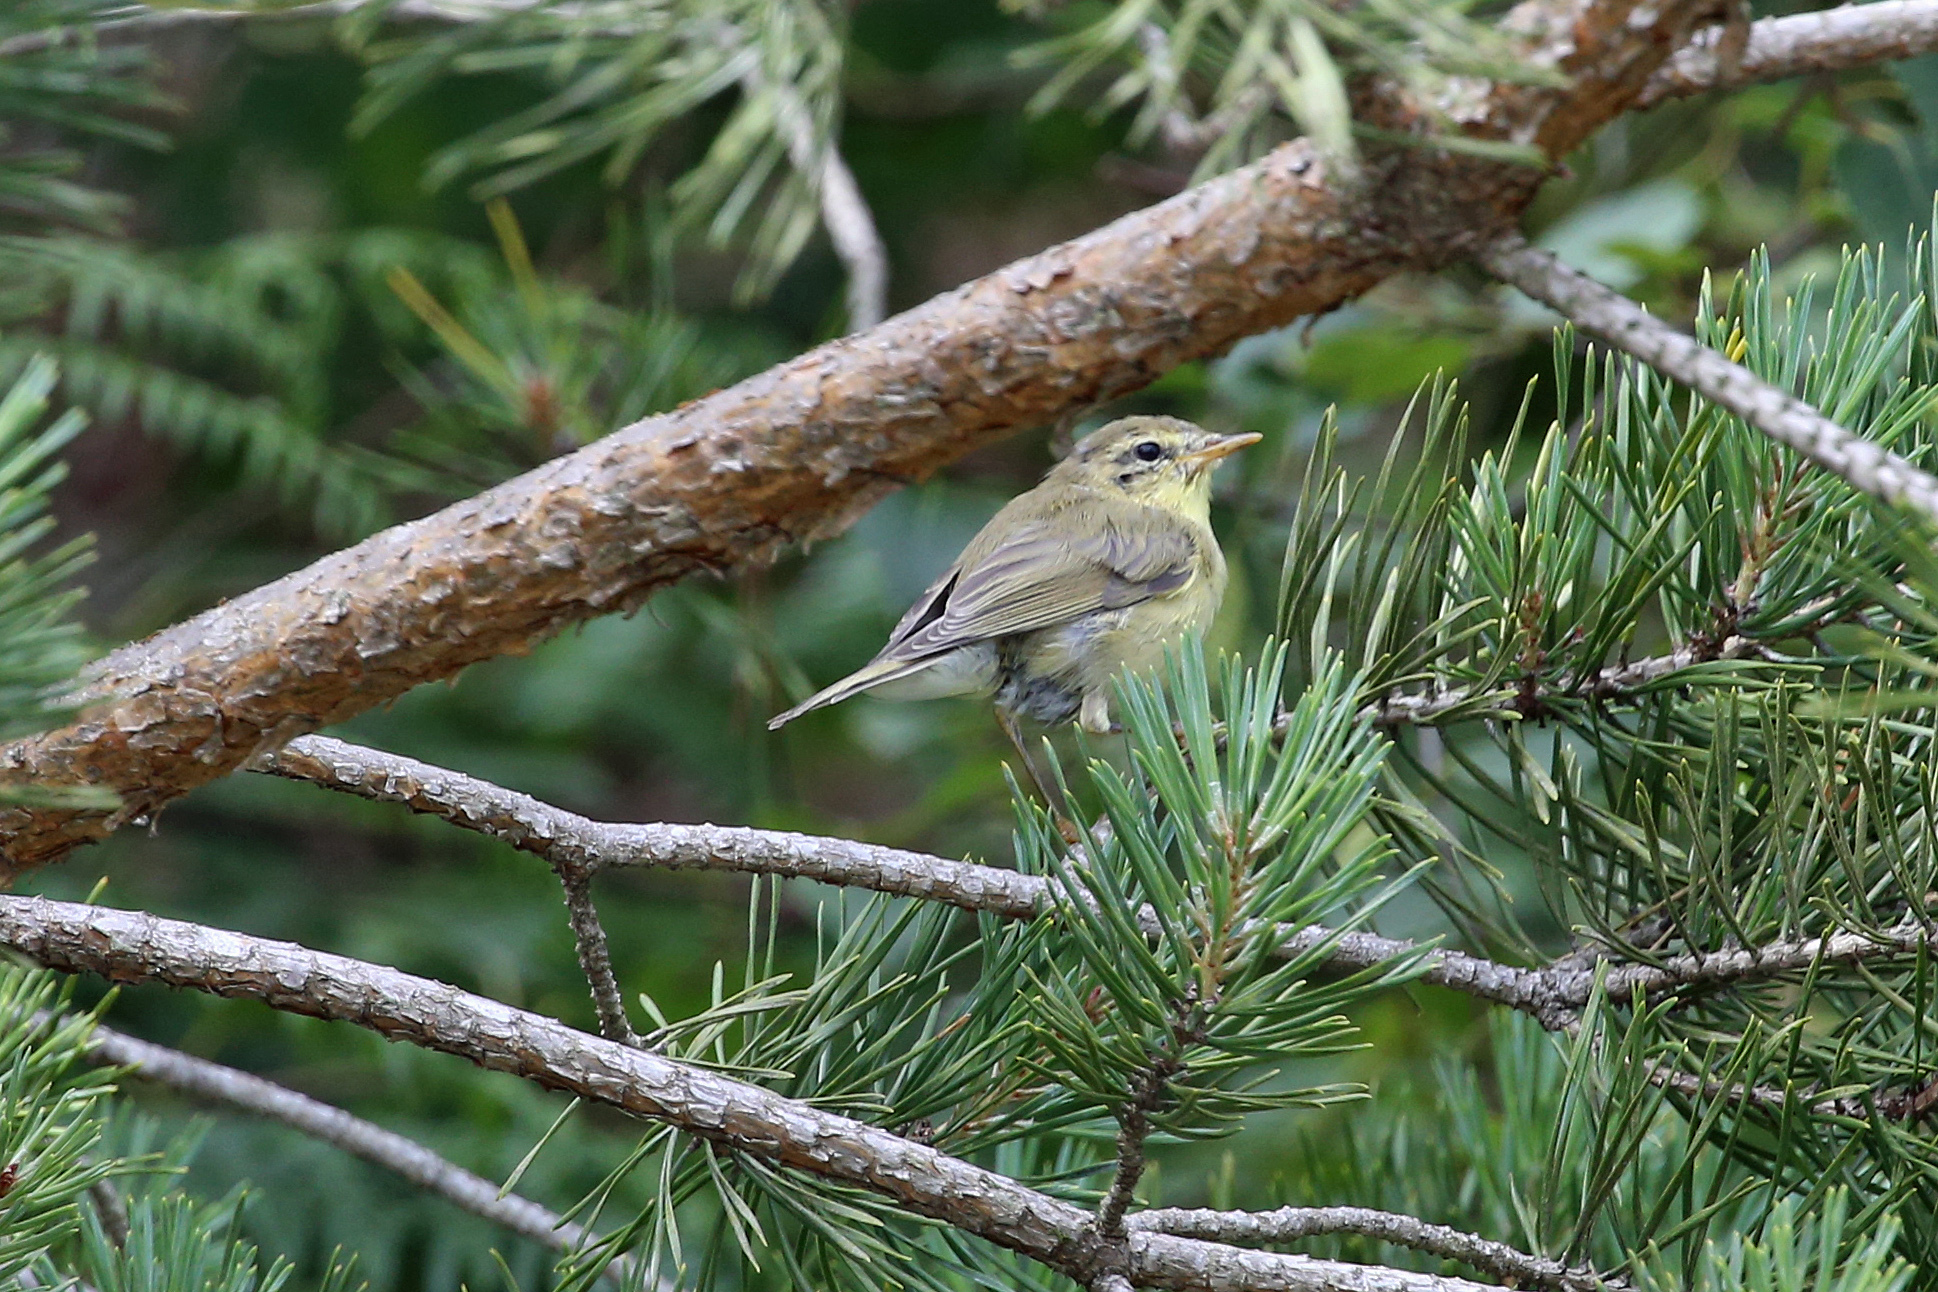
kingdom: Animalia
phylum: Chordata
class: Aves
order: Passeriformes
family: Phylloscopidae
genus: Phylloscopus
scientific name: Phylloscopus trochilus
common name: Willow warbler
